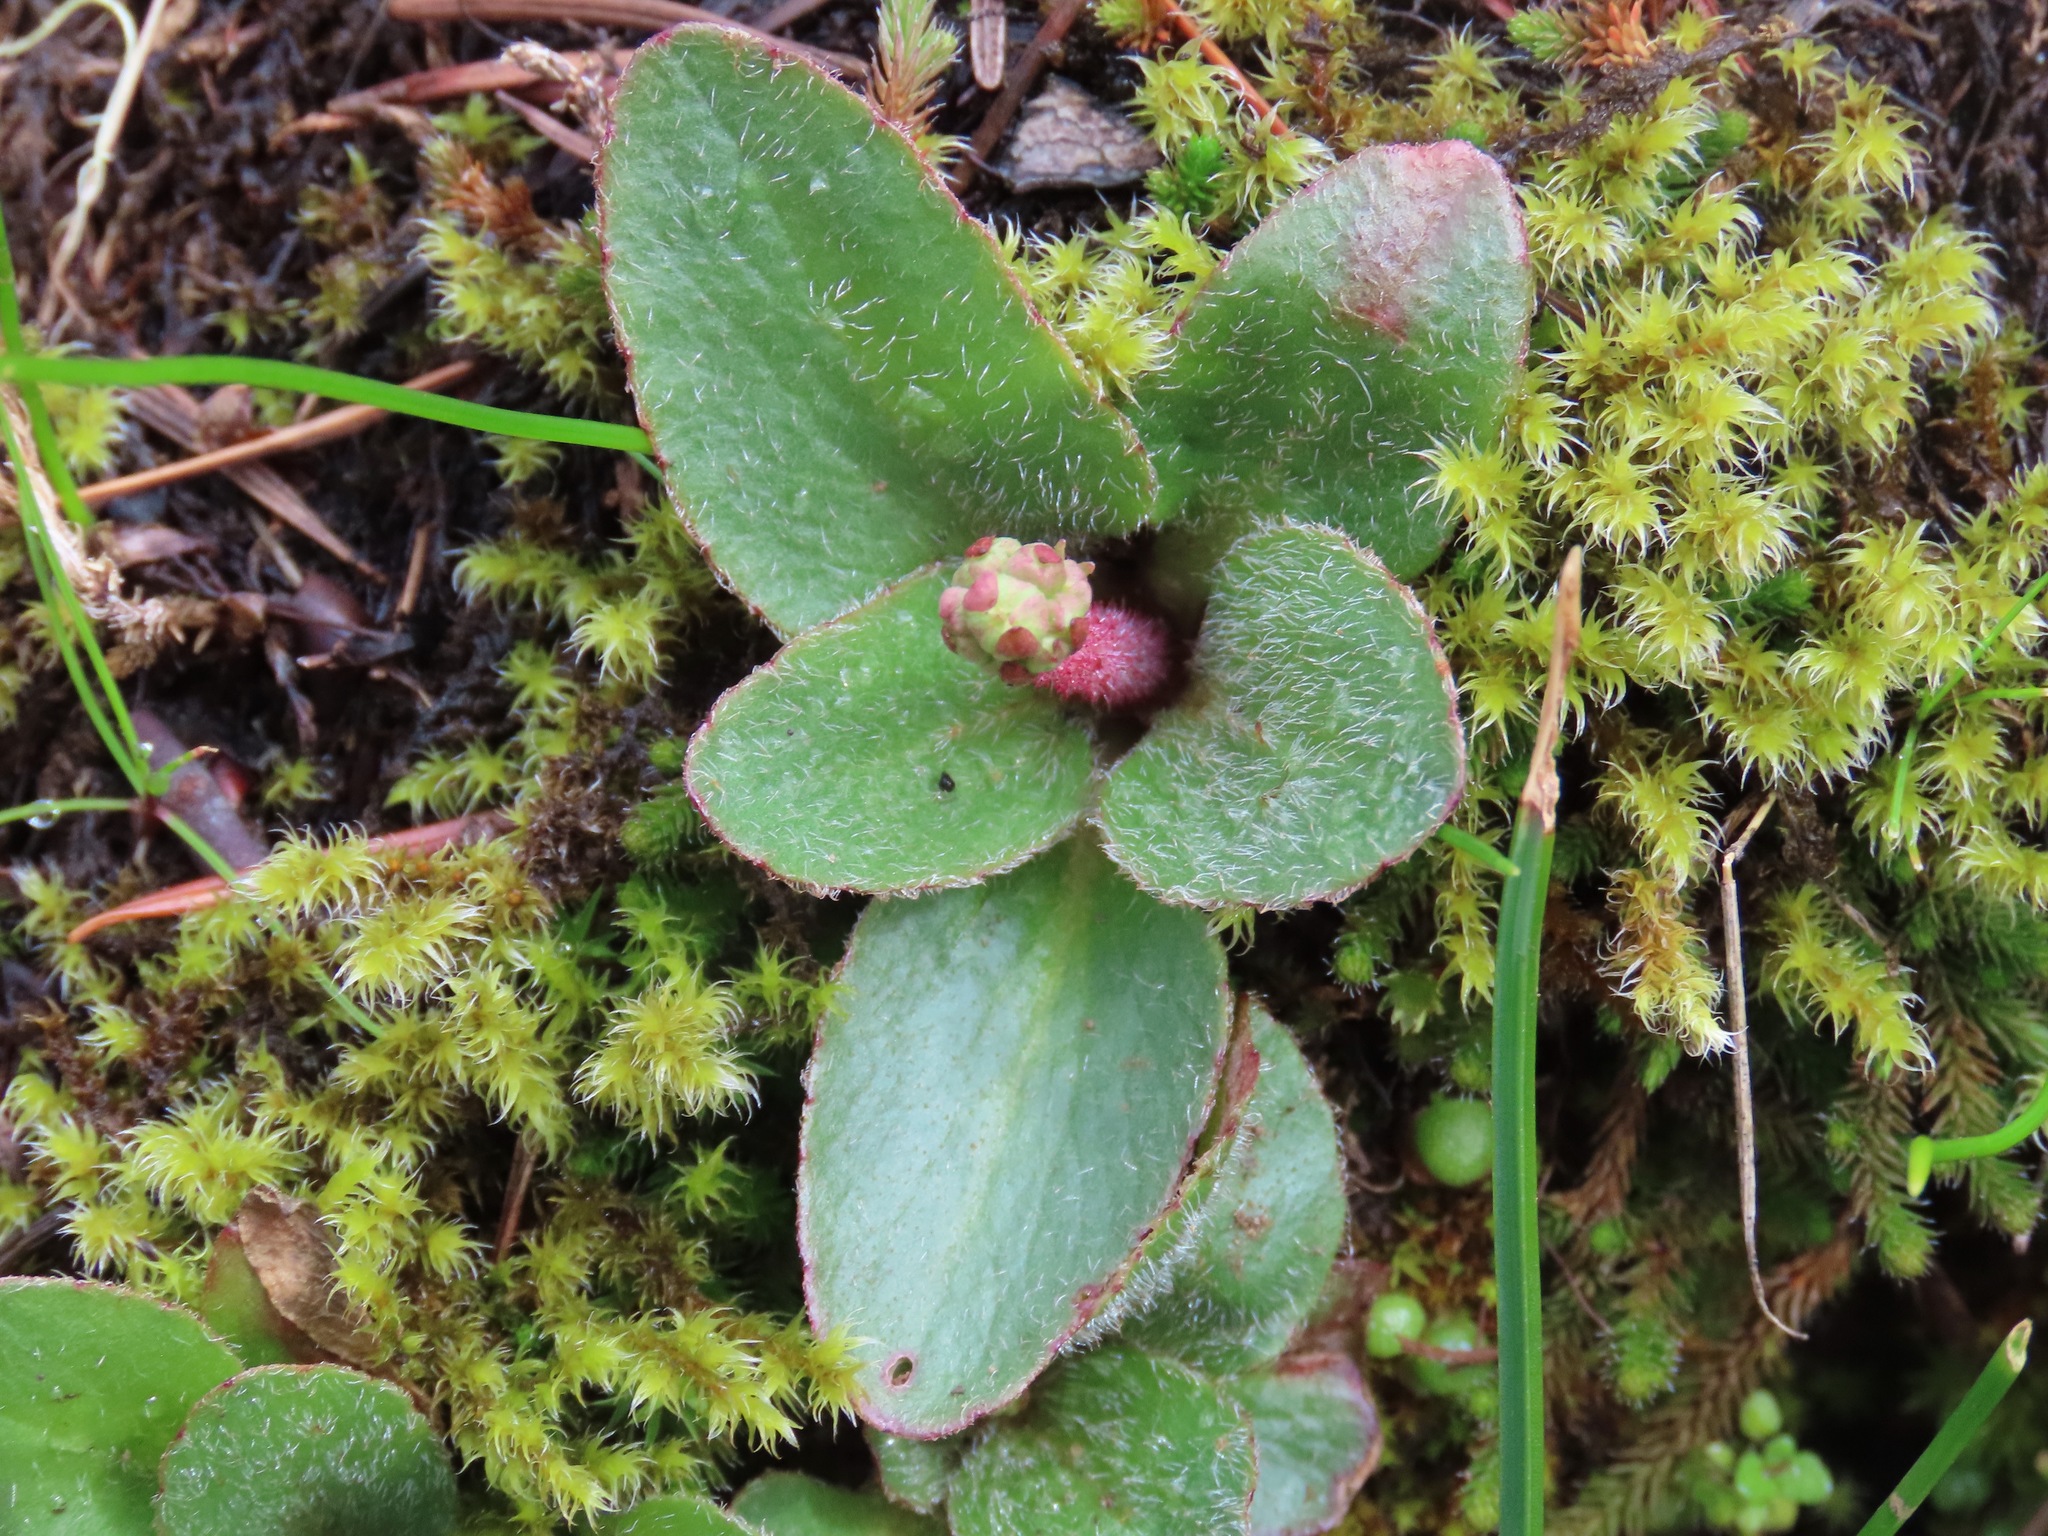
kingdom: Plantae
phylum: Tracheophyta
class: Magnoliopsida
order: Saxifragales
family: Saxifragaceae
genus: Micranthes
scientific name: Micranthes integrifolia
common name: Wholeleaf saxifrage
